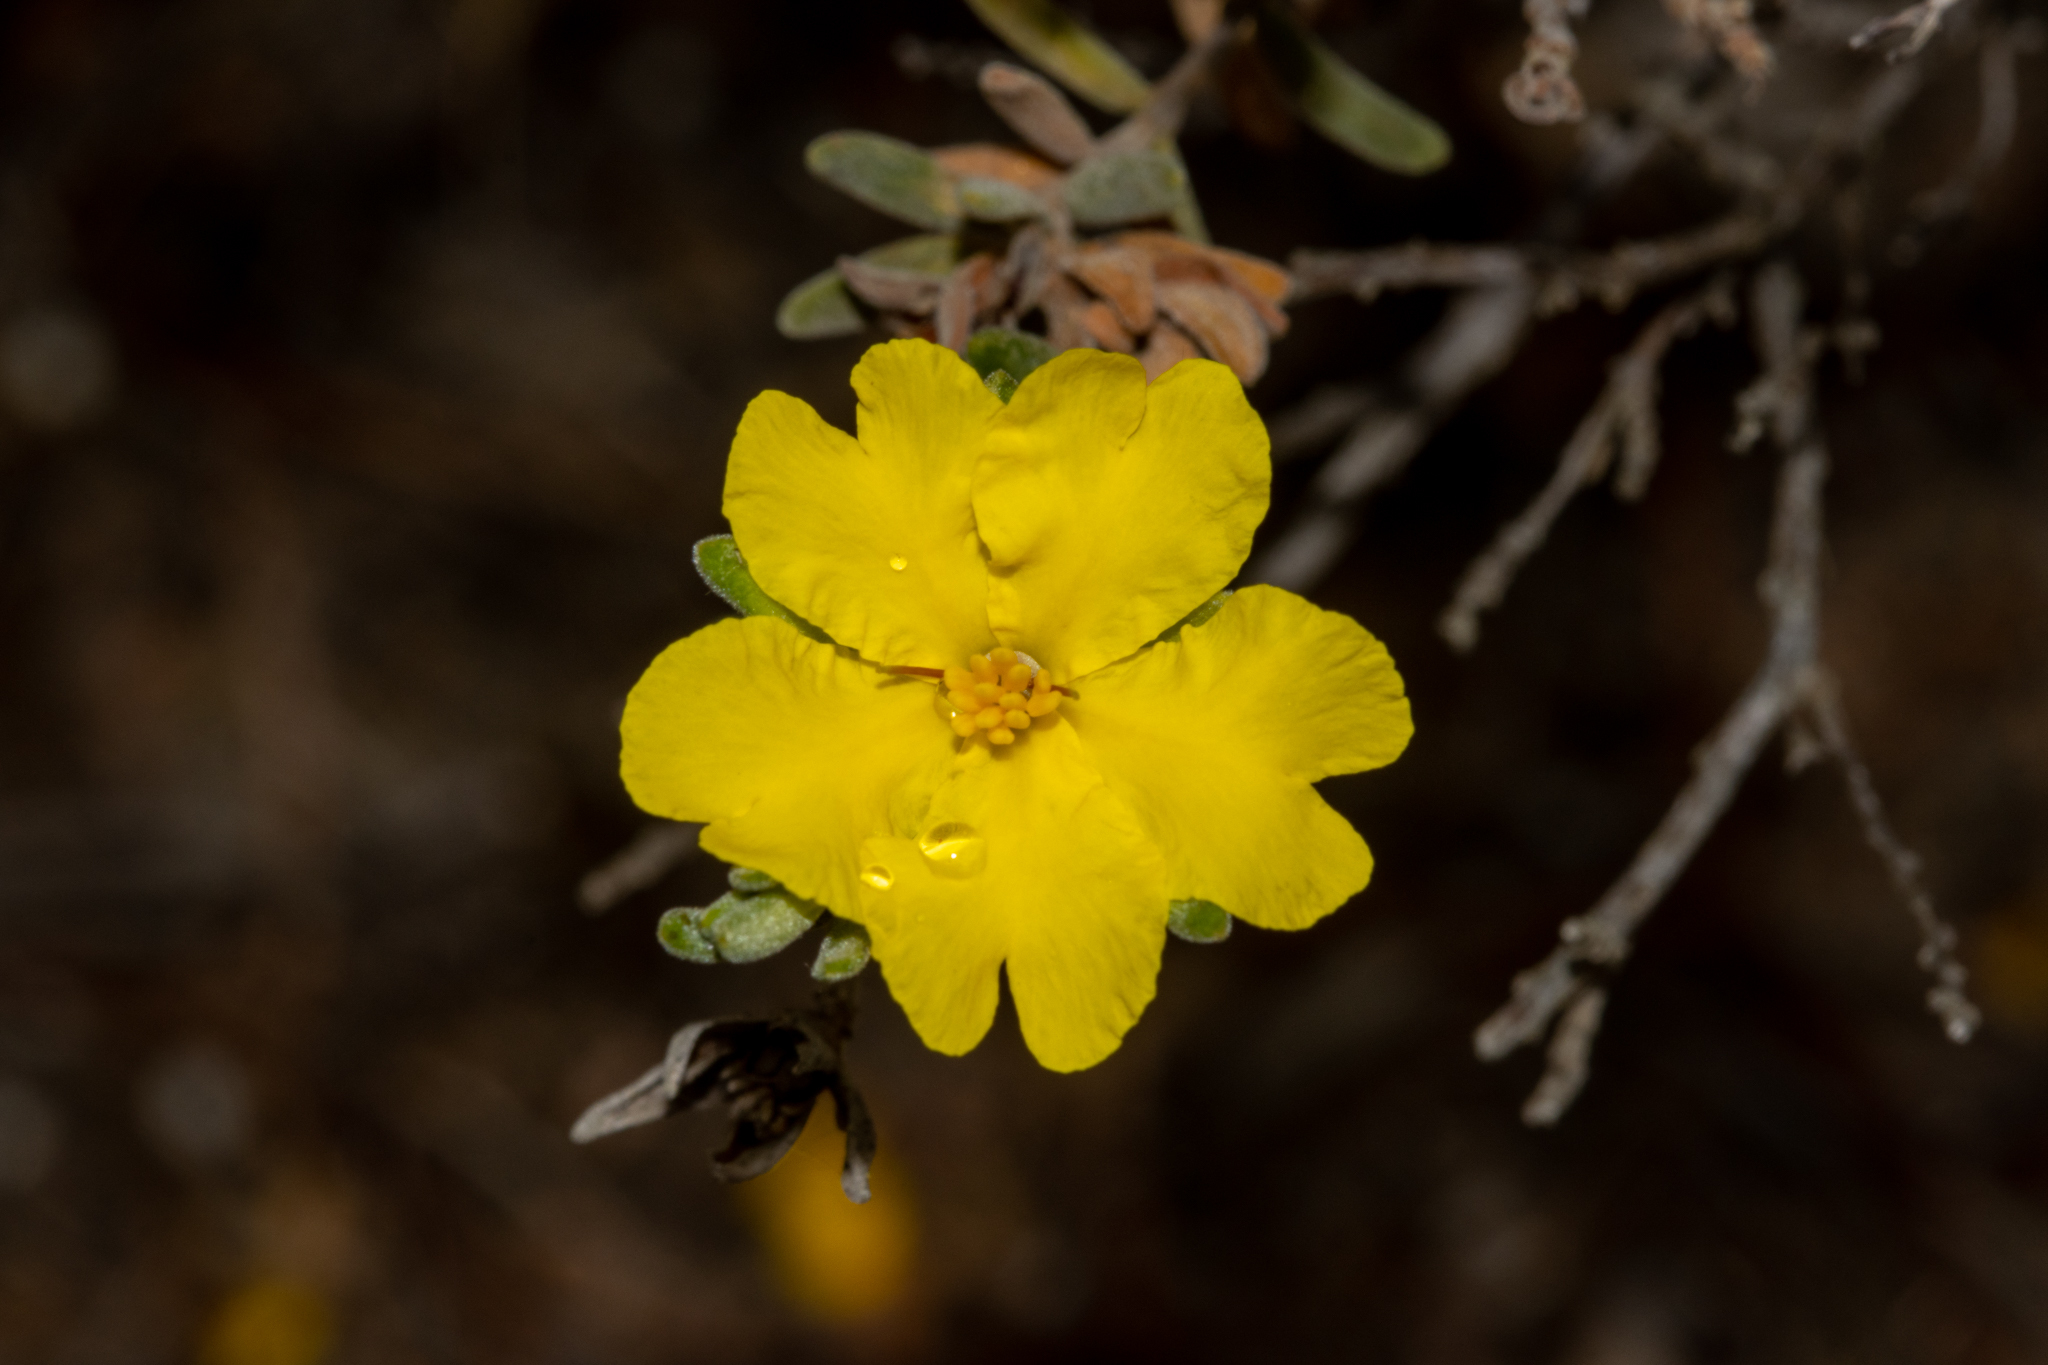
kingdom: Plantae
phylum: Tracheophyta
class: Magnoliopsida
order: Dilleniales
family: Dilleniaceae
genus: Hibbertia
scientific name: Hibbertia crinita
